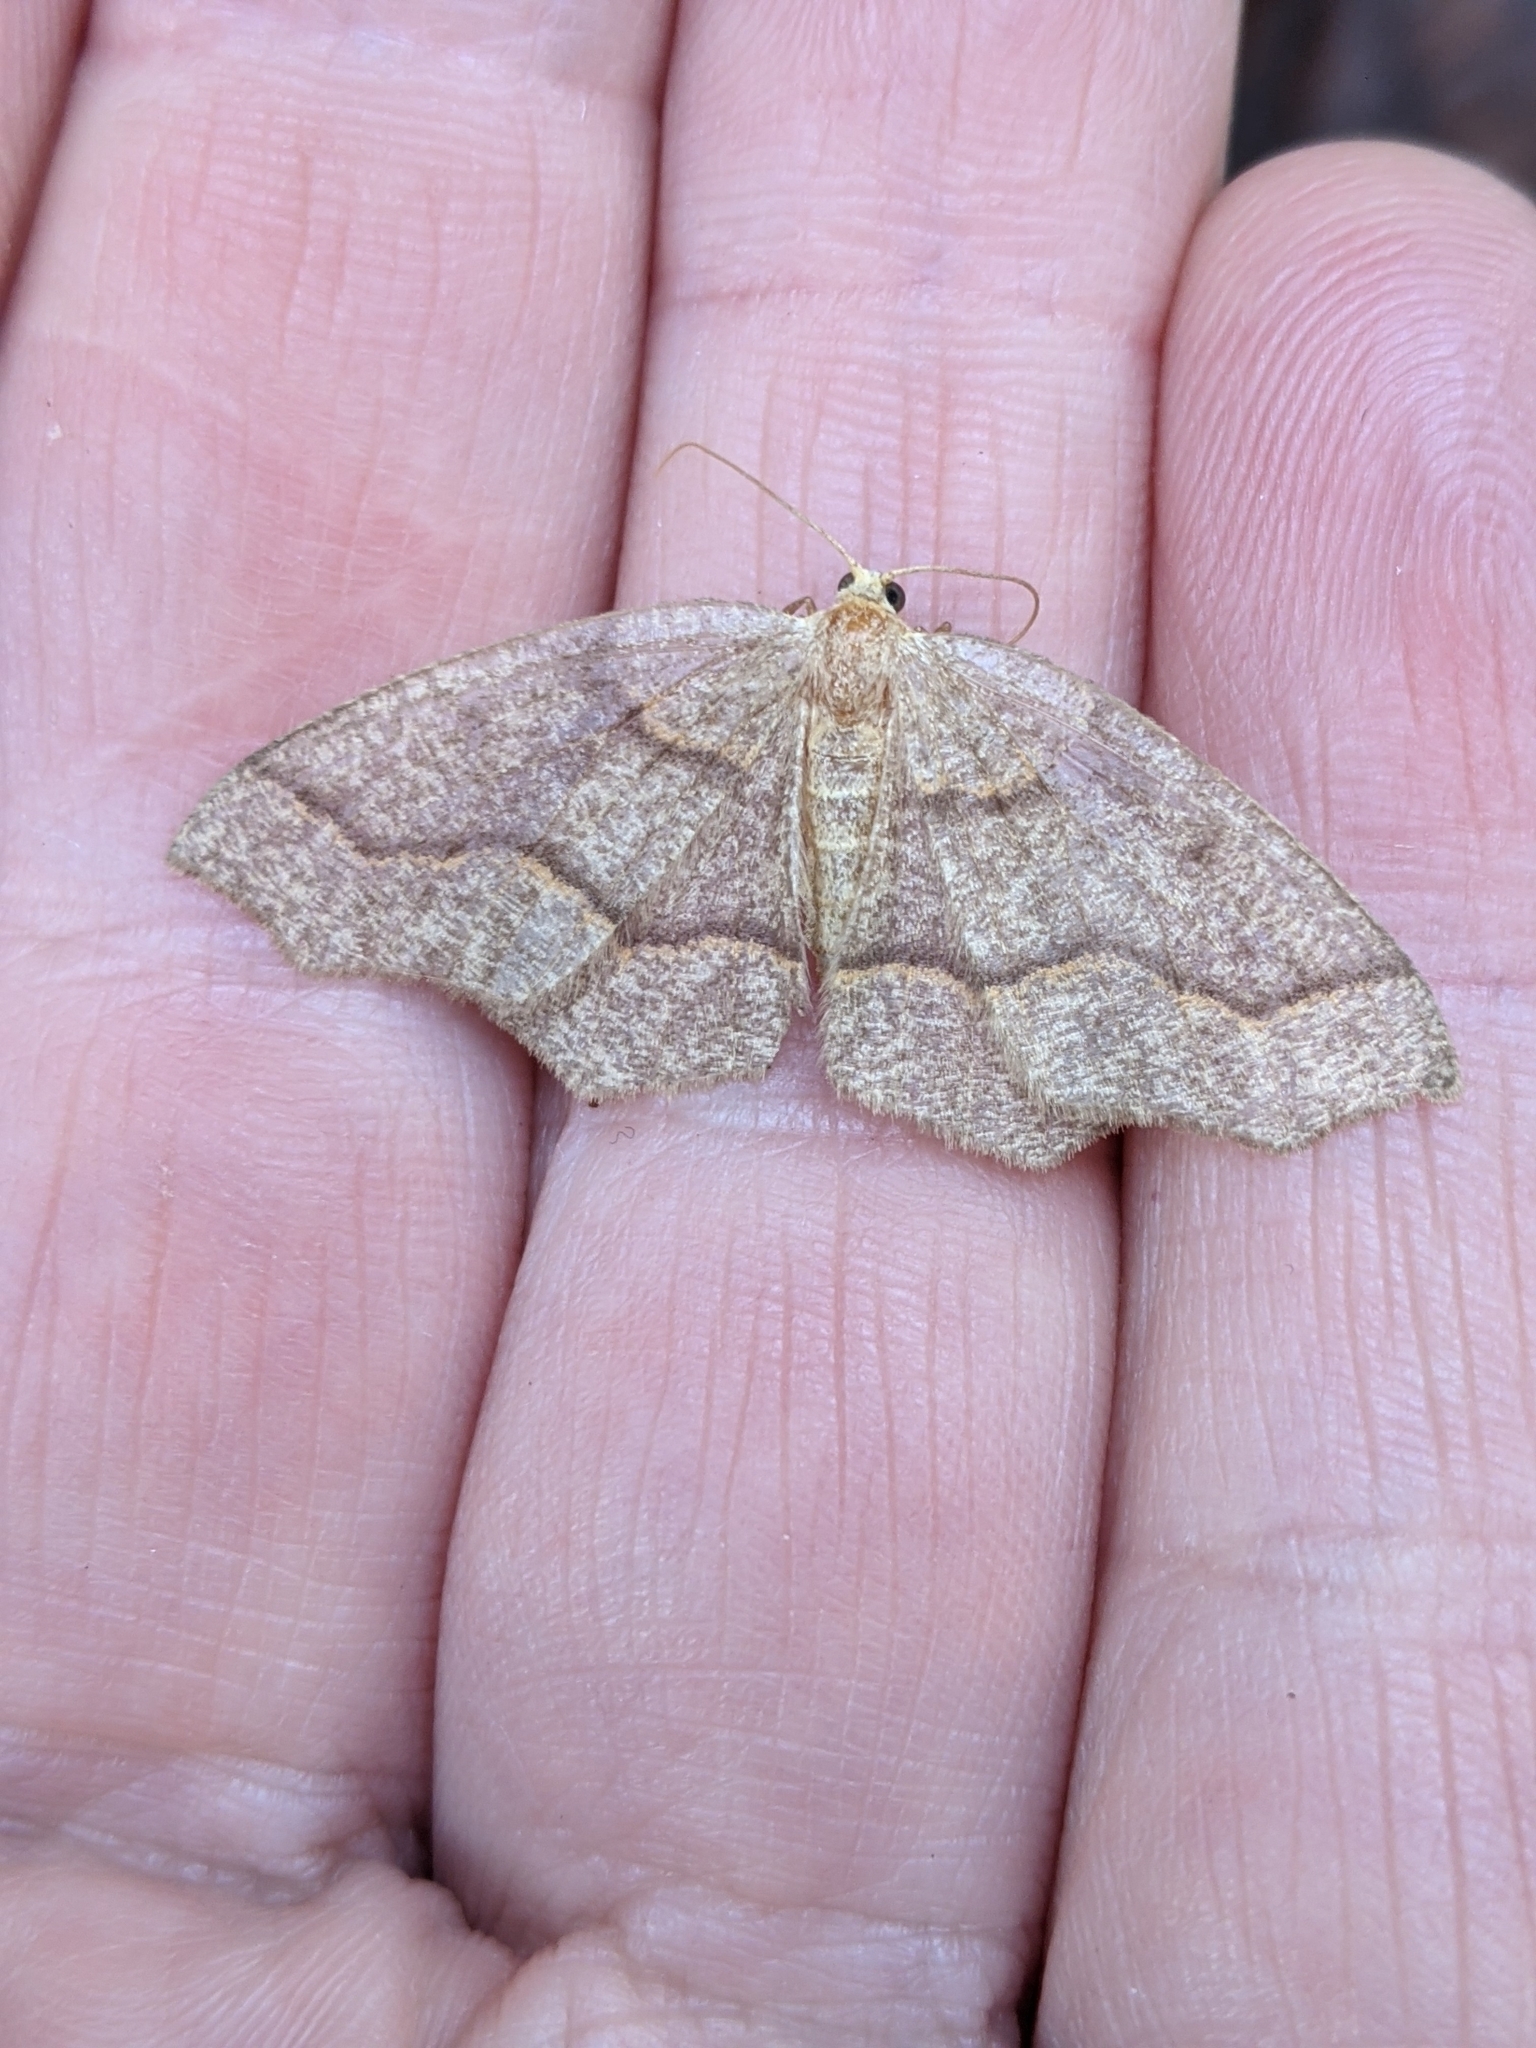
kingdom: Animalia
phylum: Arthropoda
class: Insecta
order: Lepidoptera
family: Geometridae
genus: Lambdina
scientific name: Lambdina fiscellaria
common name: Hemlock looper
